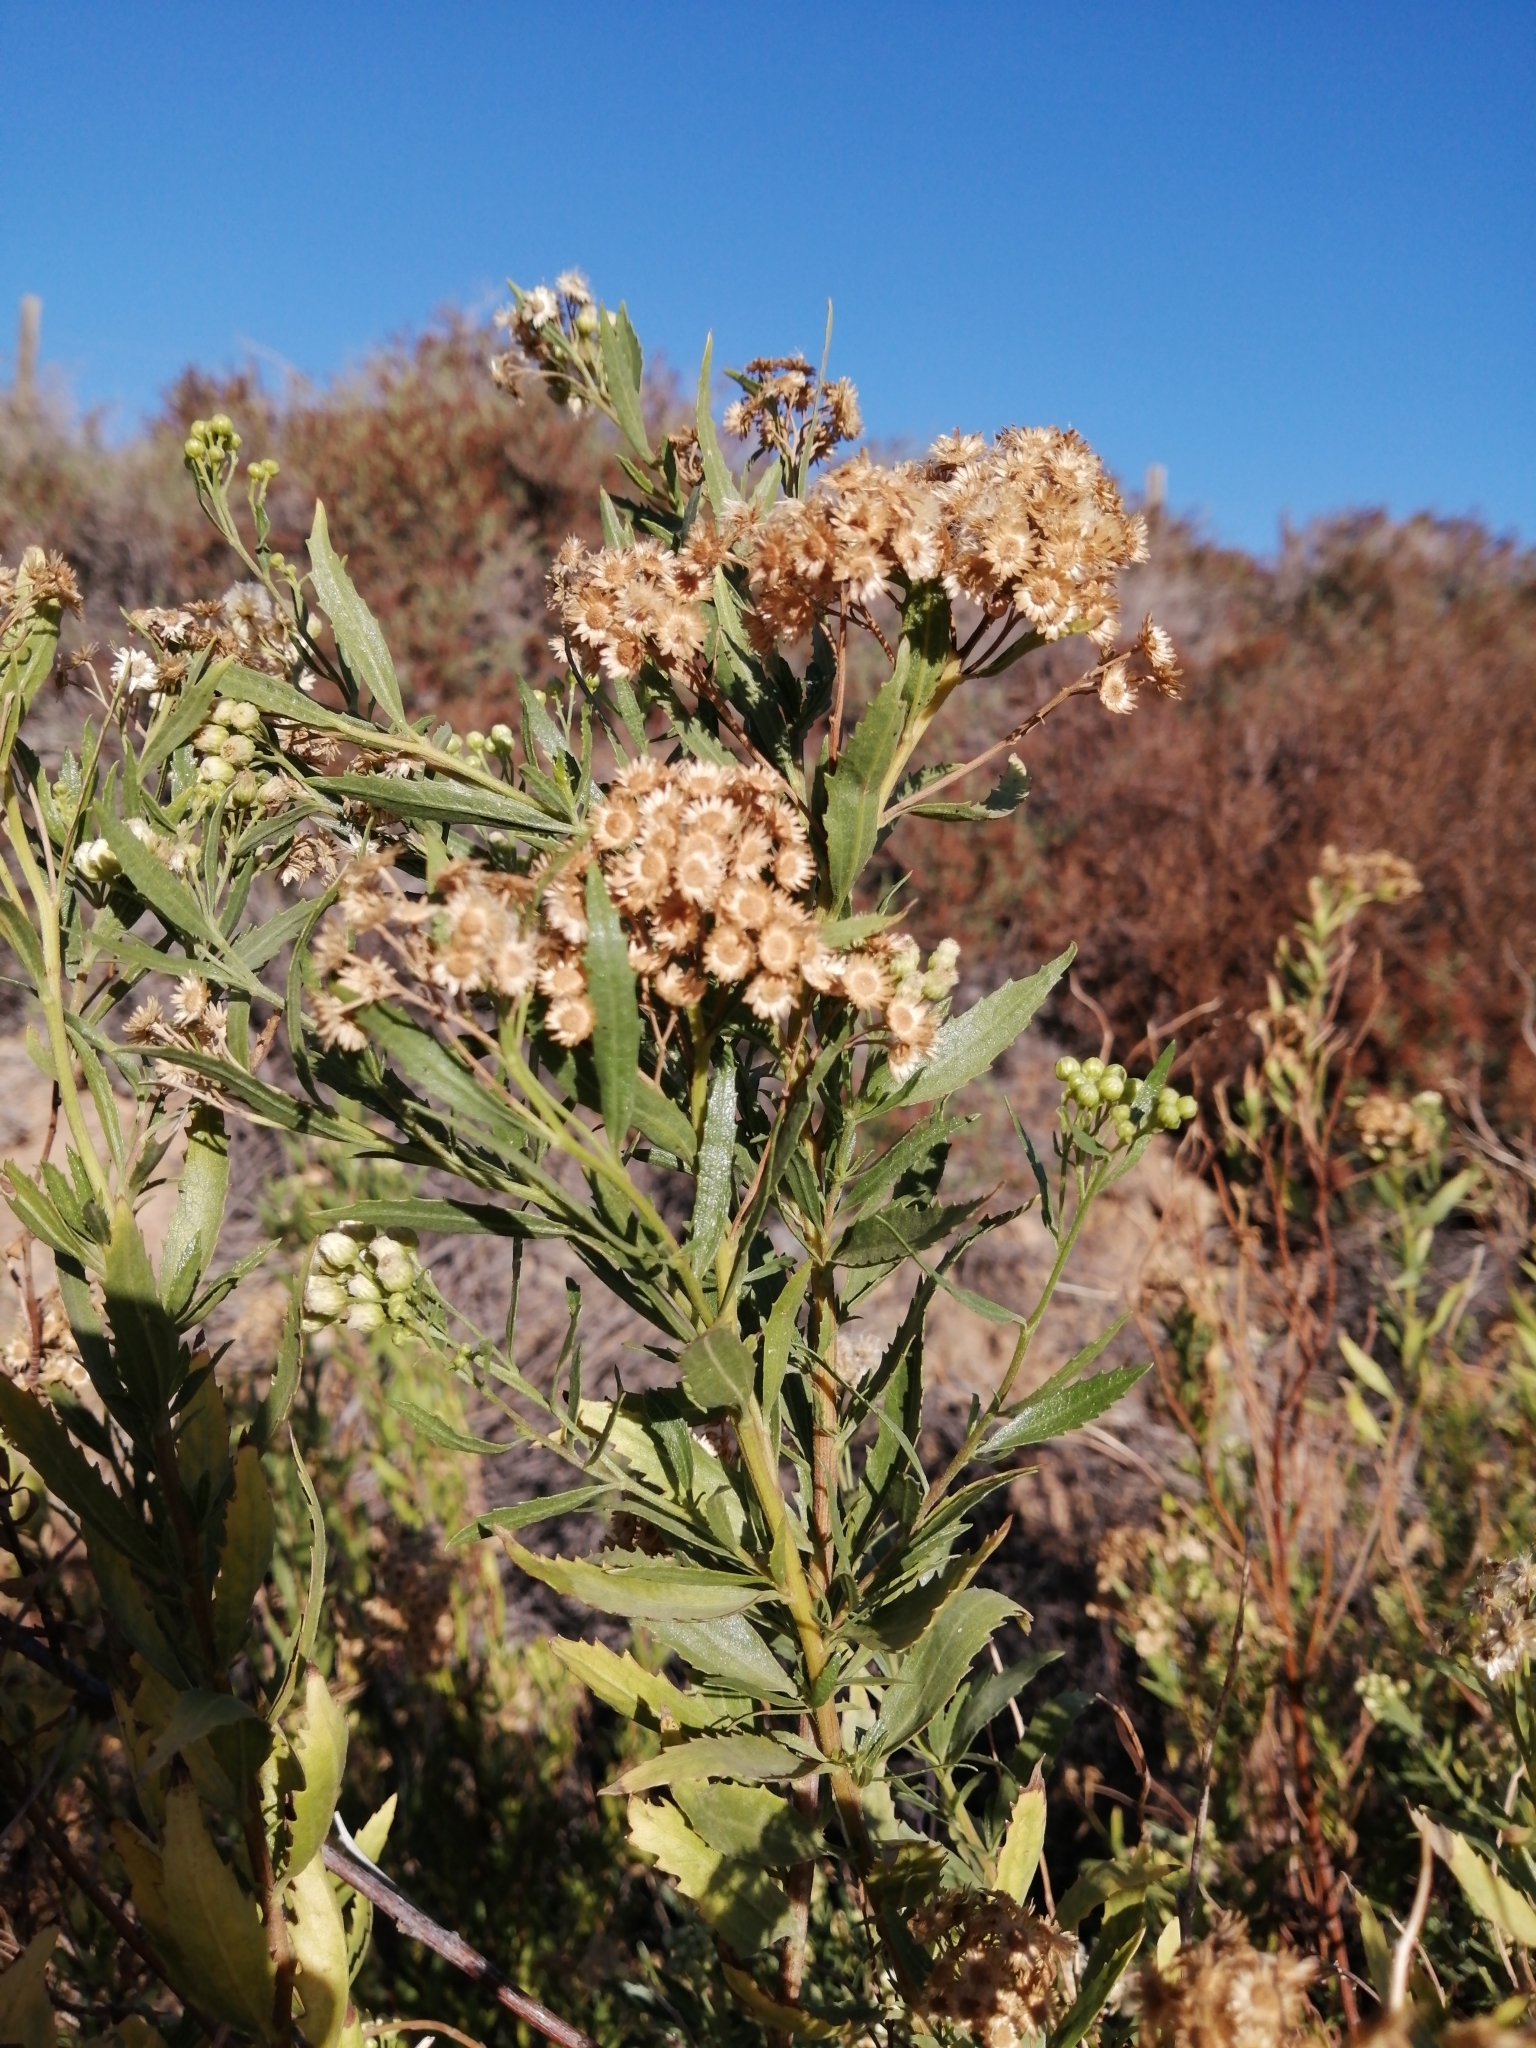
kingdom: Plantae
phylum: Tracheophyta
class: Magnoliopsida
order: Asterales
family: Asteraceae
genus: Nidorella
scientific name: Nidorella ivifolia
